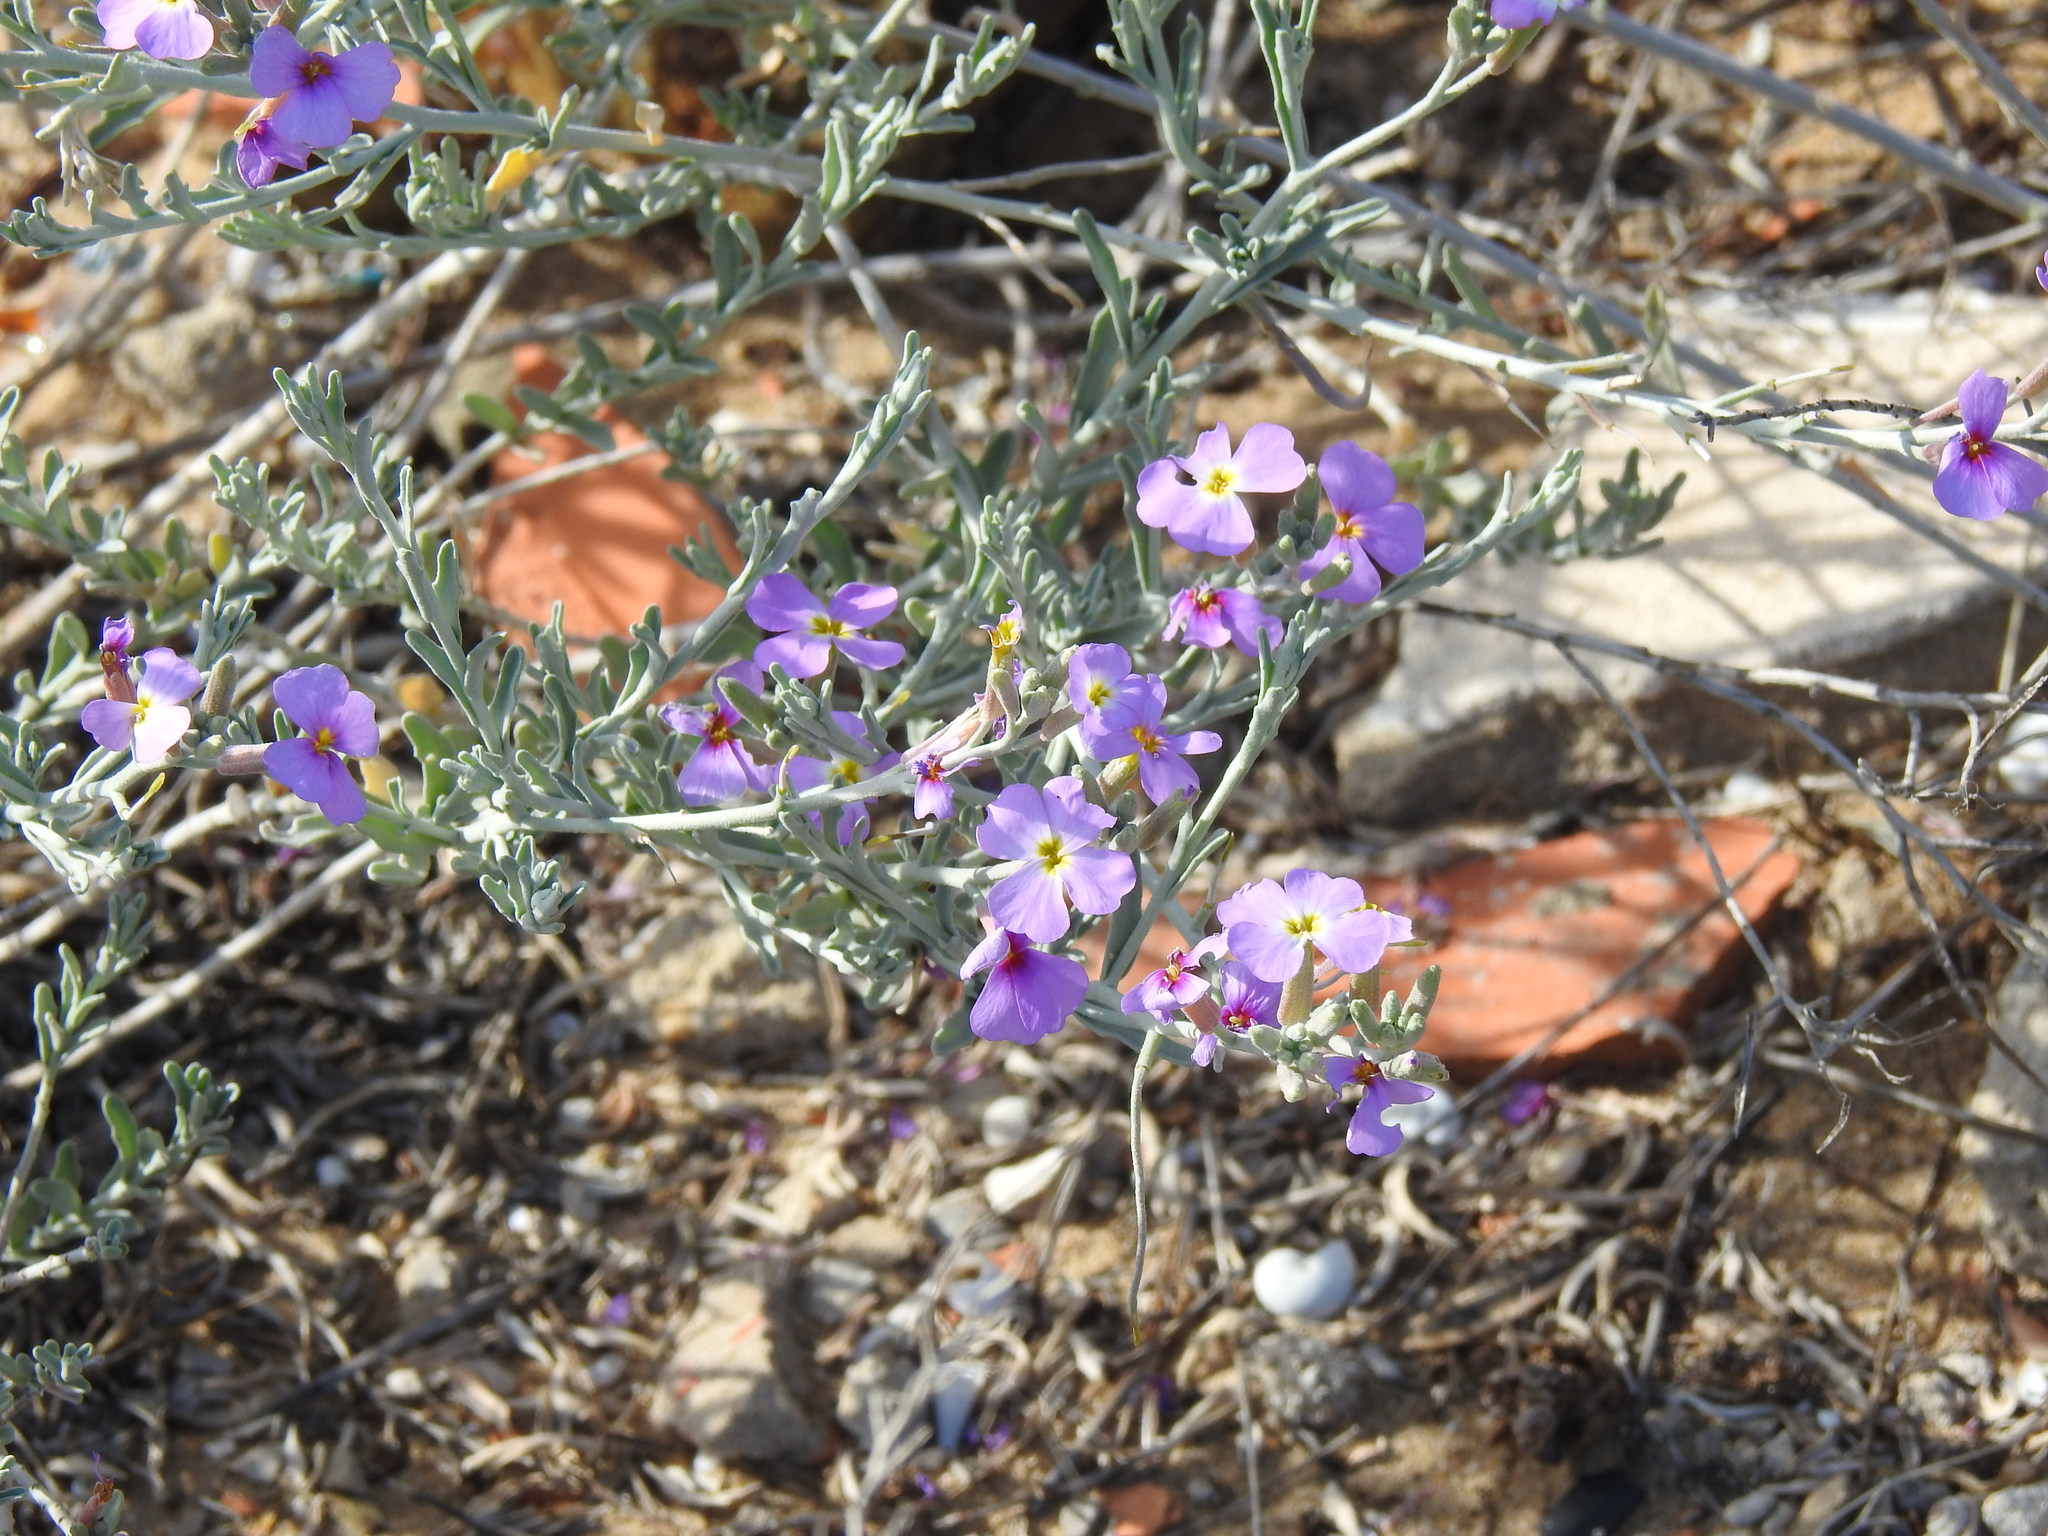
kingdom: Plantae
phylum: Tracheophyta
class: Magnoliopsida
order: Brassicales
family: Brassicaceae
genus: Marcuskochia
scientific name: Marcuskochia littorea
